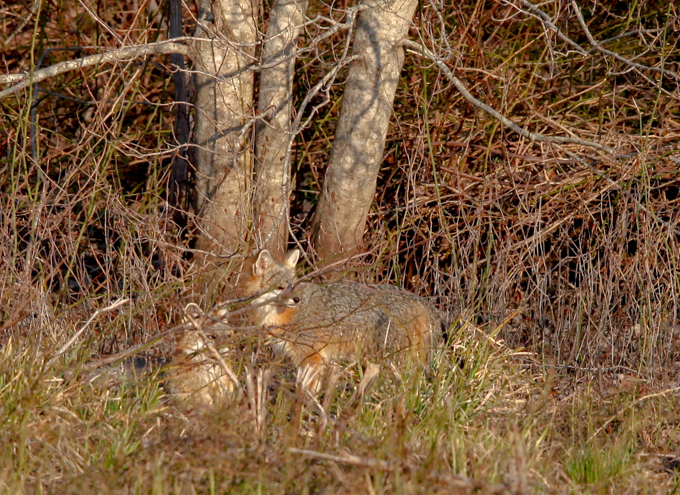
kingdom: Animalia
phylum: Chordata
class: Mammalia
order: Carnivora
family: Canidae
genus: Urocyon
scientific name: Urocyon cinereoargenteus
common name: Gray fox
